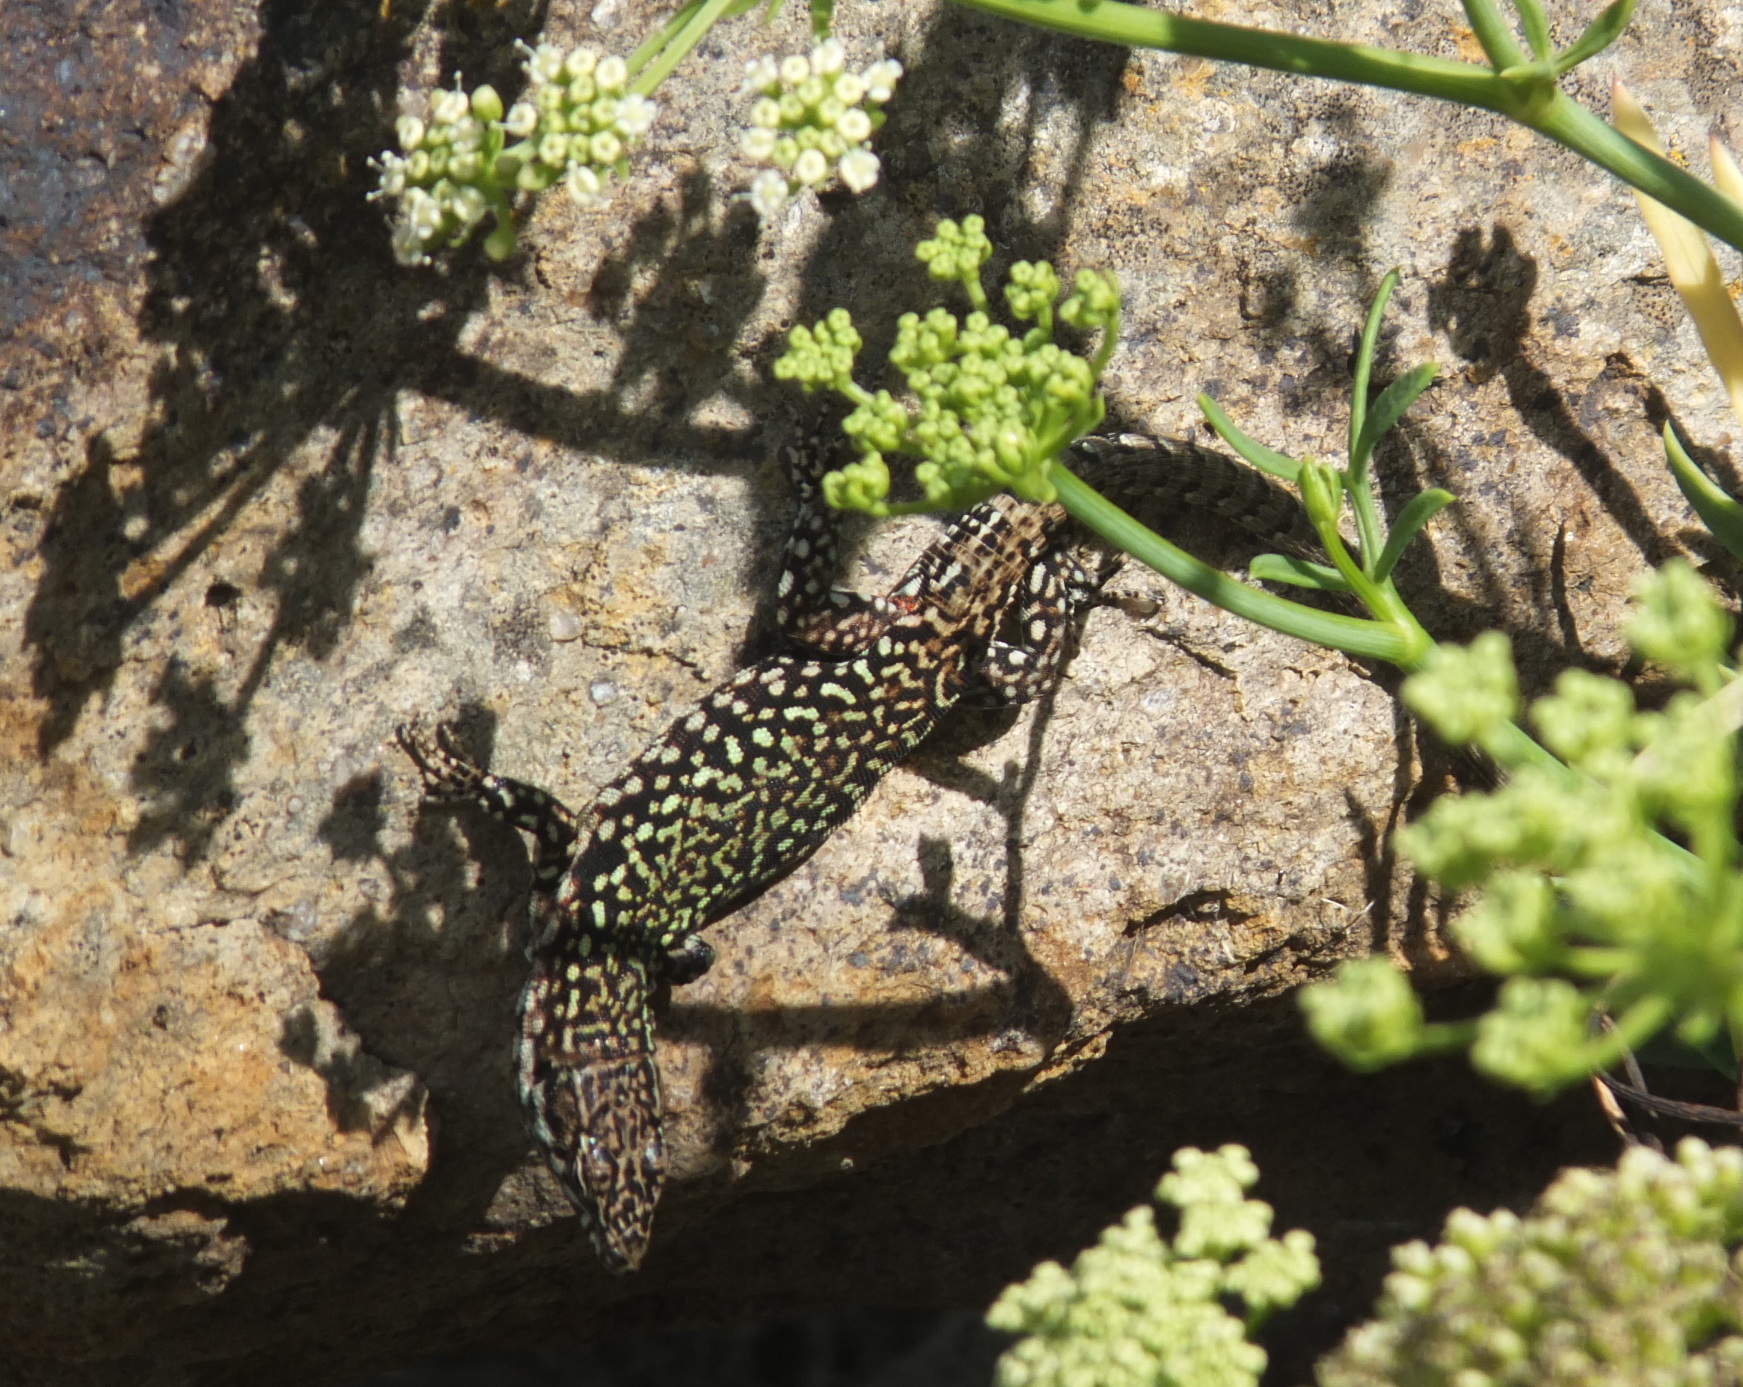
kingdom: Animalia
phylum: Chordata
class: Squamata
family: Lacertidae
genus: Podarcis
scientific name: Podarcis muralis
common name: Common wall lizard
